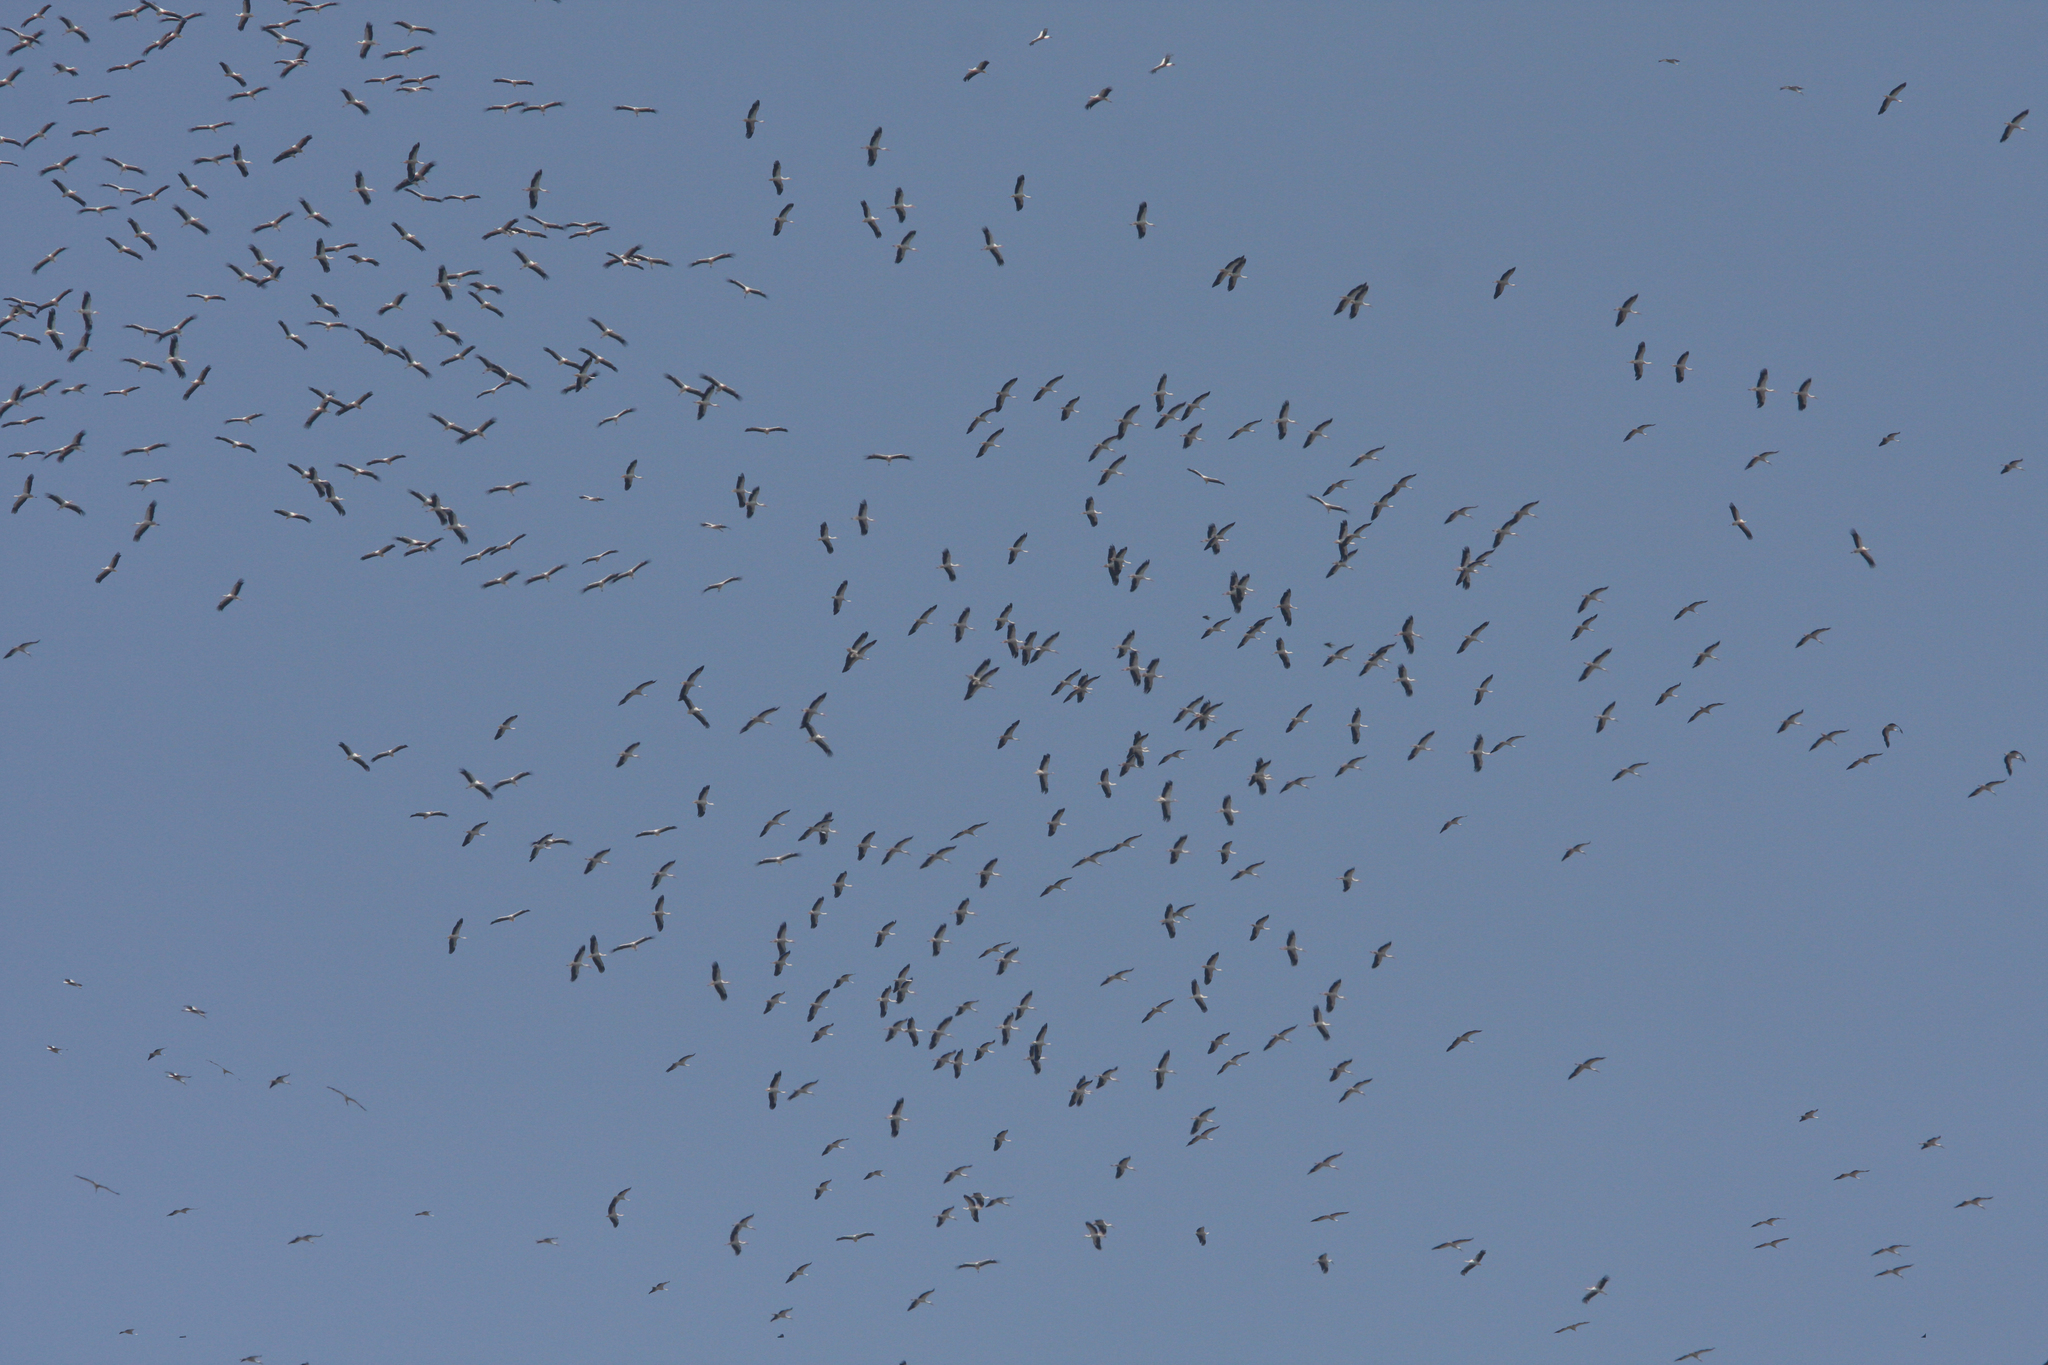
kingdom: Animalia
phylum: Chordata
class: Aves
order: Ciconiiformes
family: Ciconiidae
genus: Ciconia
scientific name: Ciconia ciconia
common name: White stork
